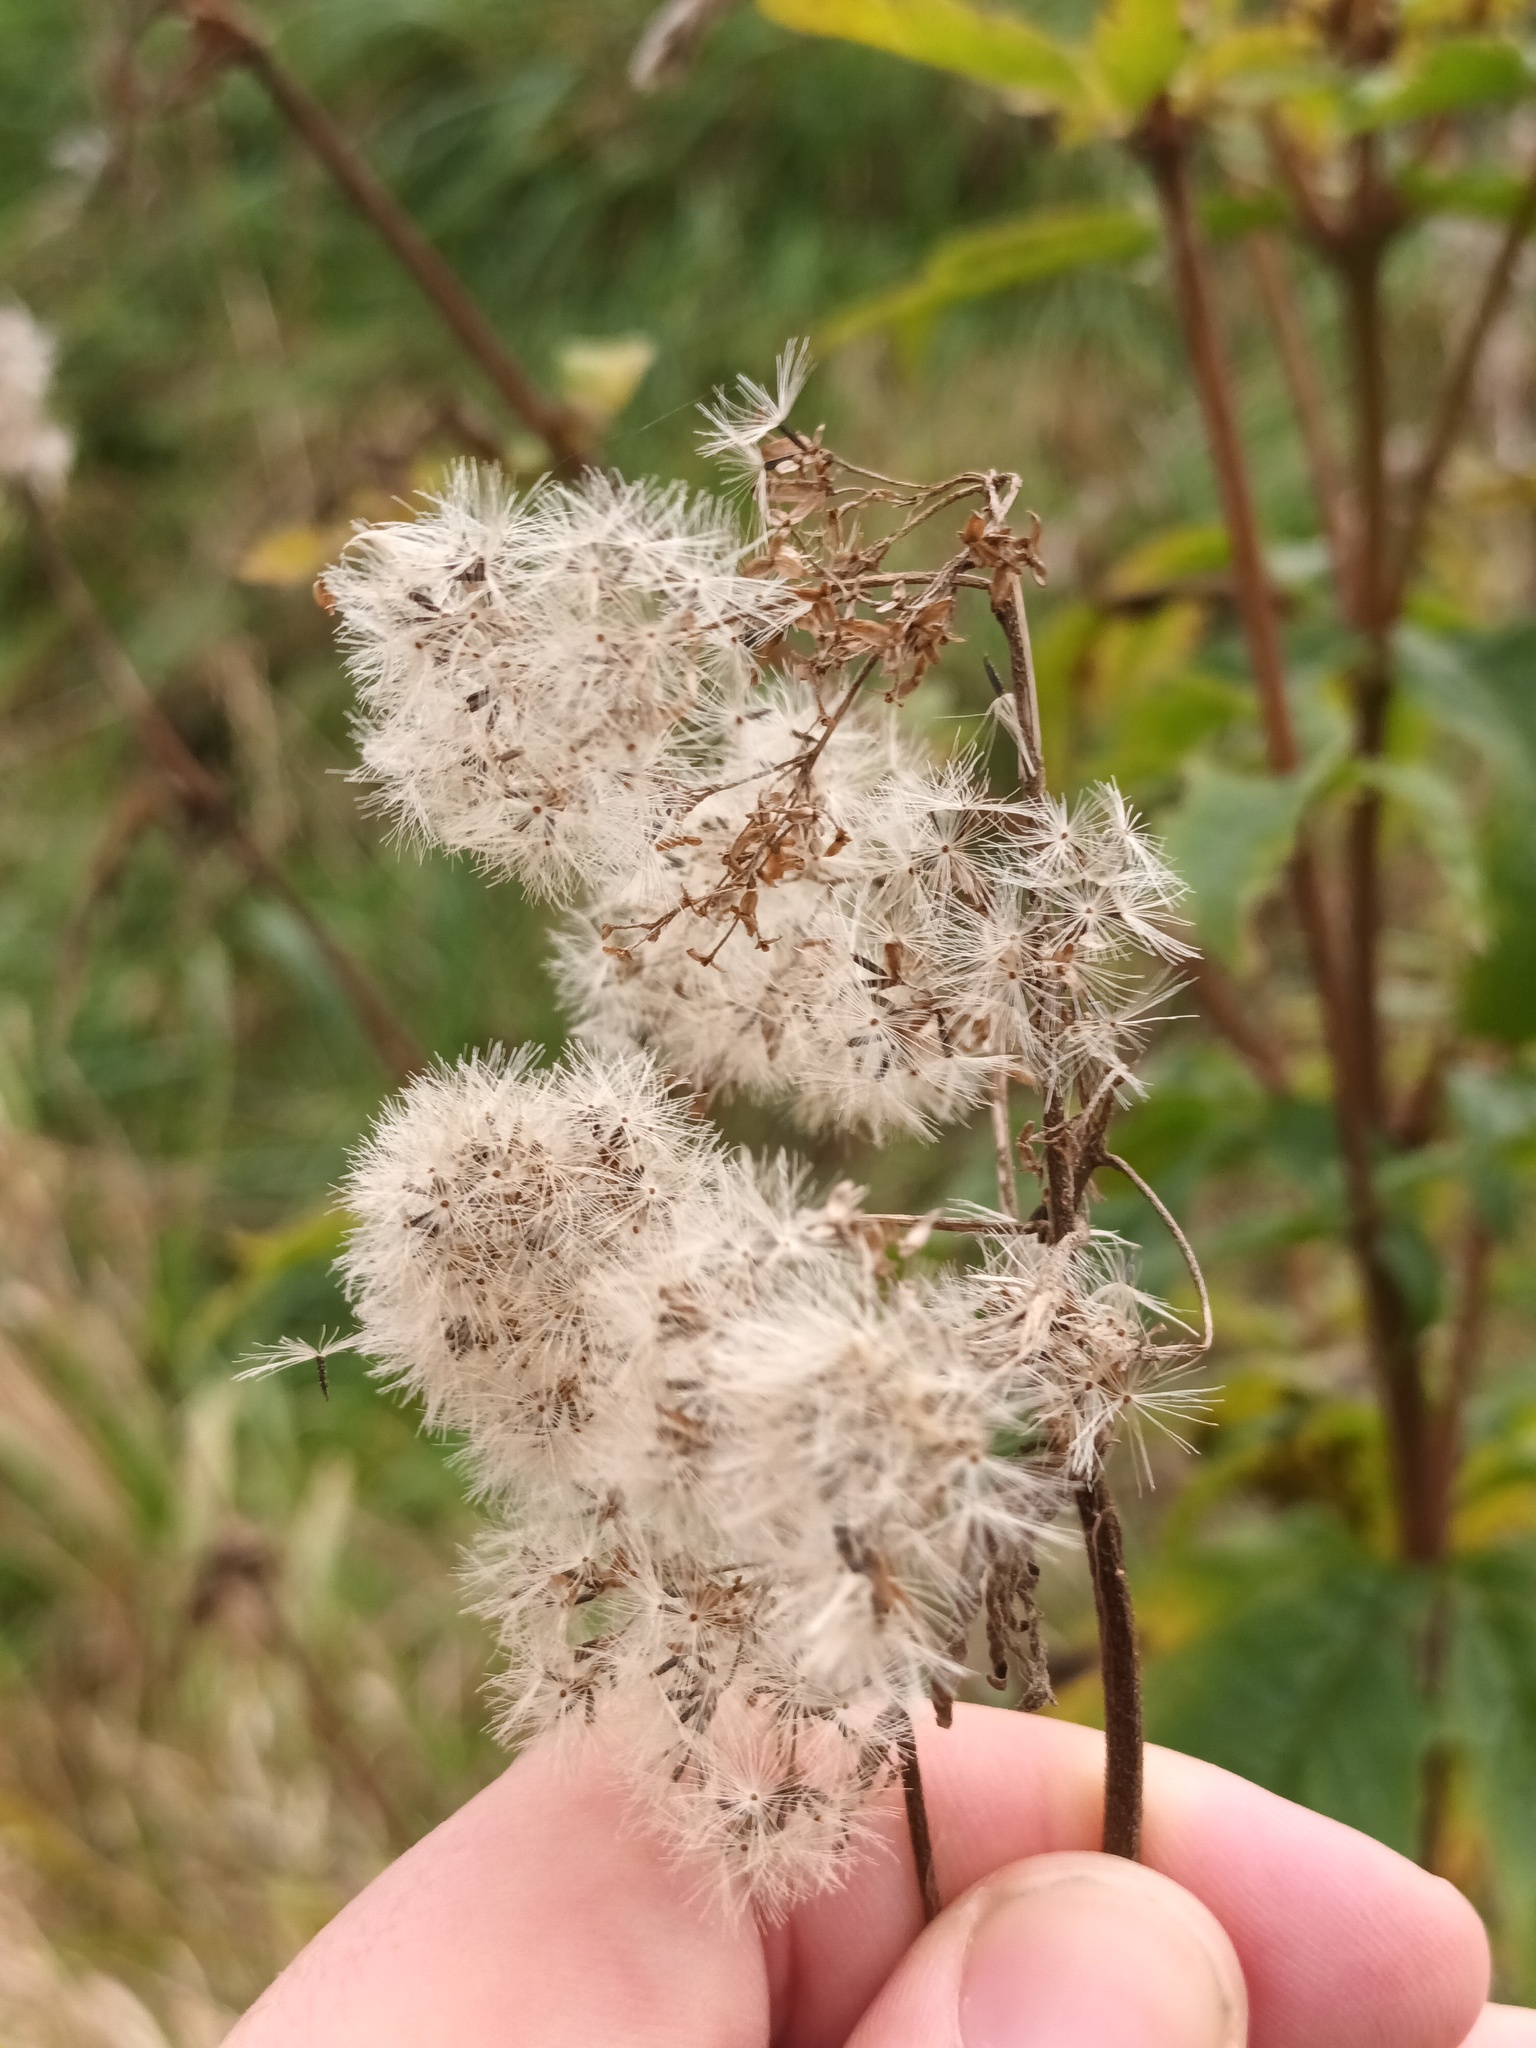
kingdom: Plantae
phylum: Tracheophyta
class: Magnoliopsida
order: Asterales
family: Asteraceae
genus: Eupatorium
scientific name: Eupatorium cannabinum
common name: Hemp-agrimony
